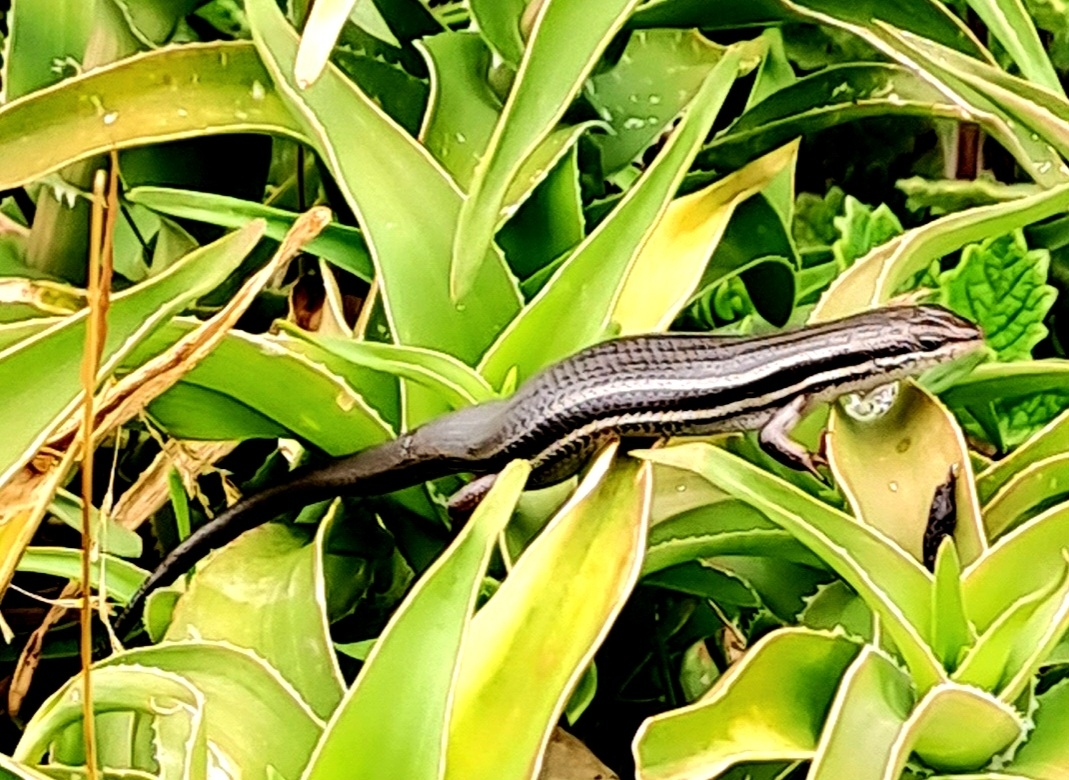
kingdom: Animalia
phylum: Chordata
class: Squamata
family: Scincidae
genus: Trachylepis
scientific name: Trachylepis homalocephala
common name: Red-sided skink
